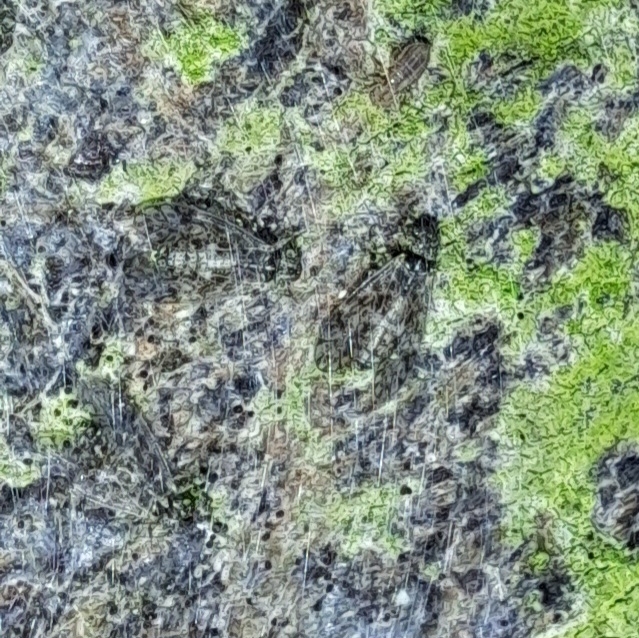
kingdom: Animalia
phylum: Arthropoda
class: Insecta
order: Psocodea
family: Philotarsidae
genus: Aaroniella
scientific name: Aaroniella badonneli
